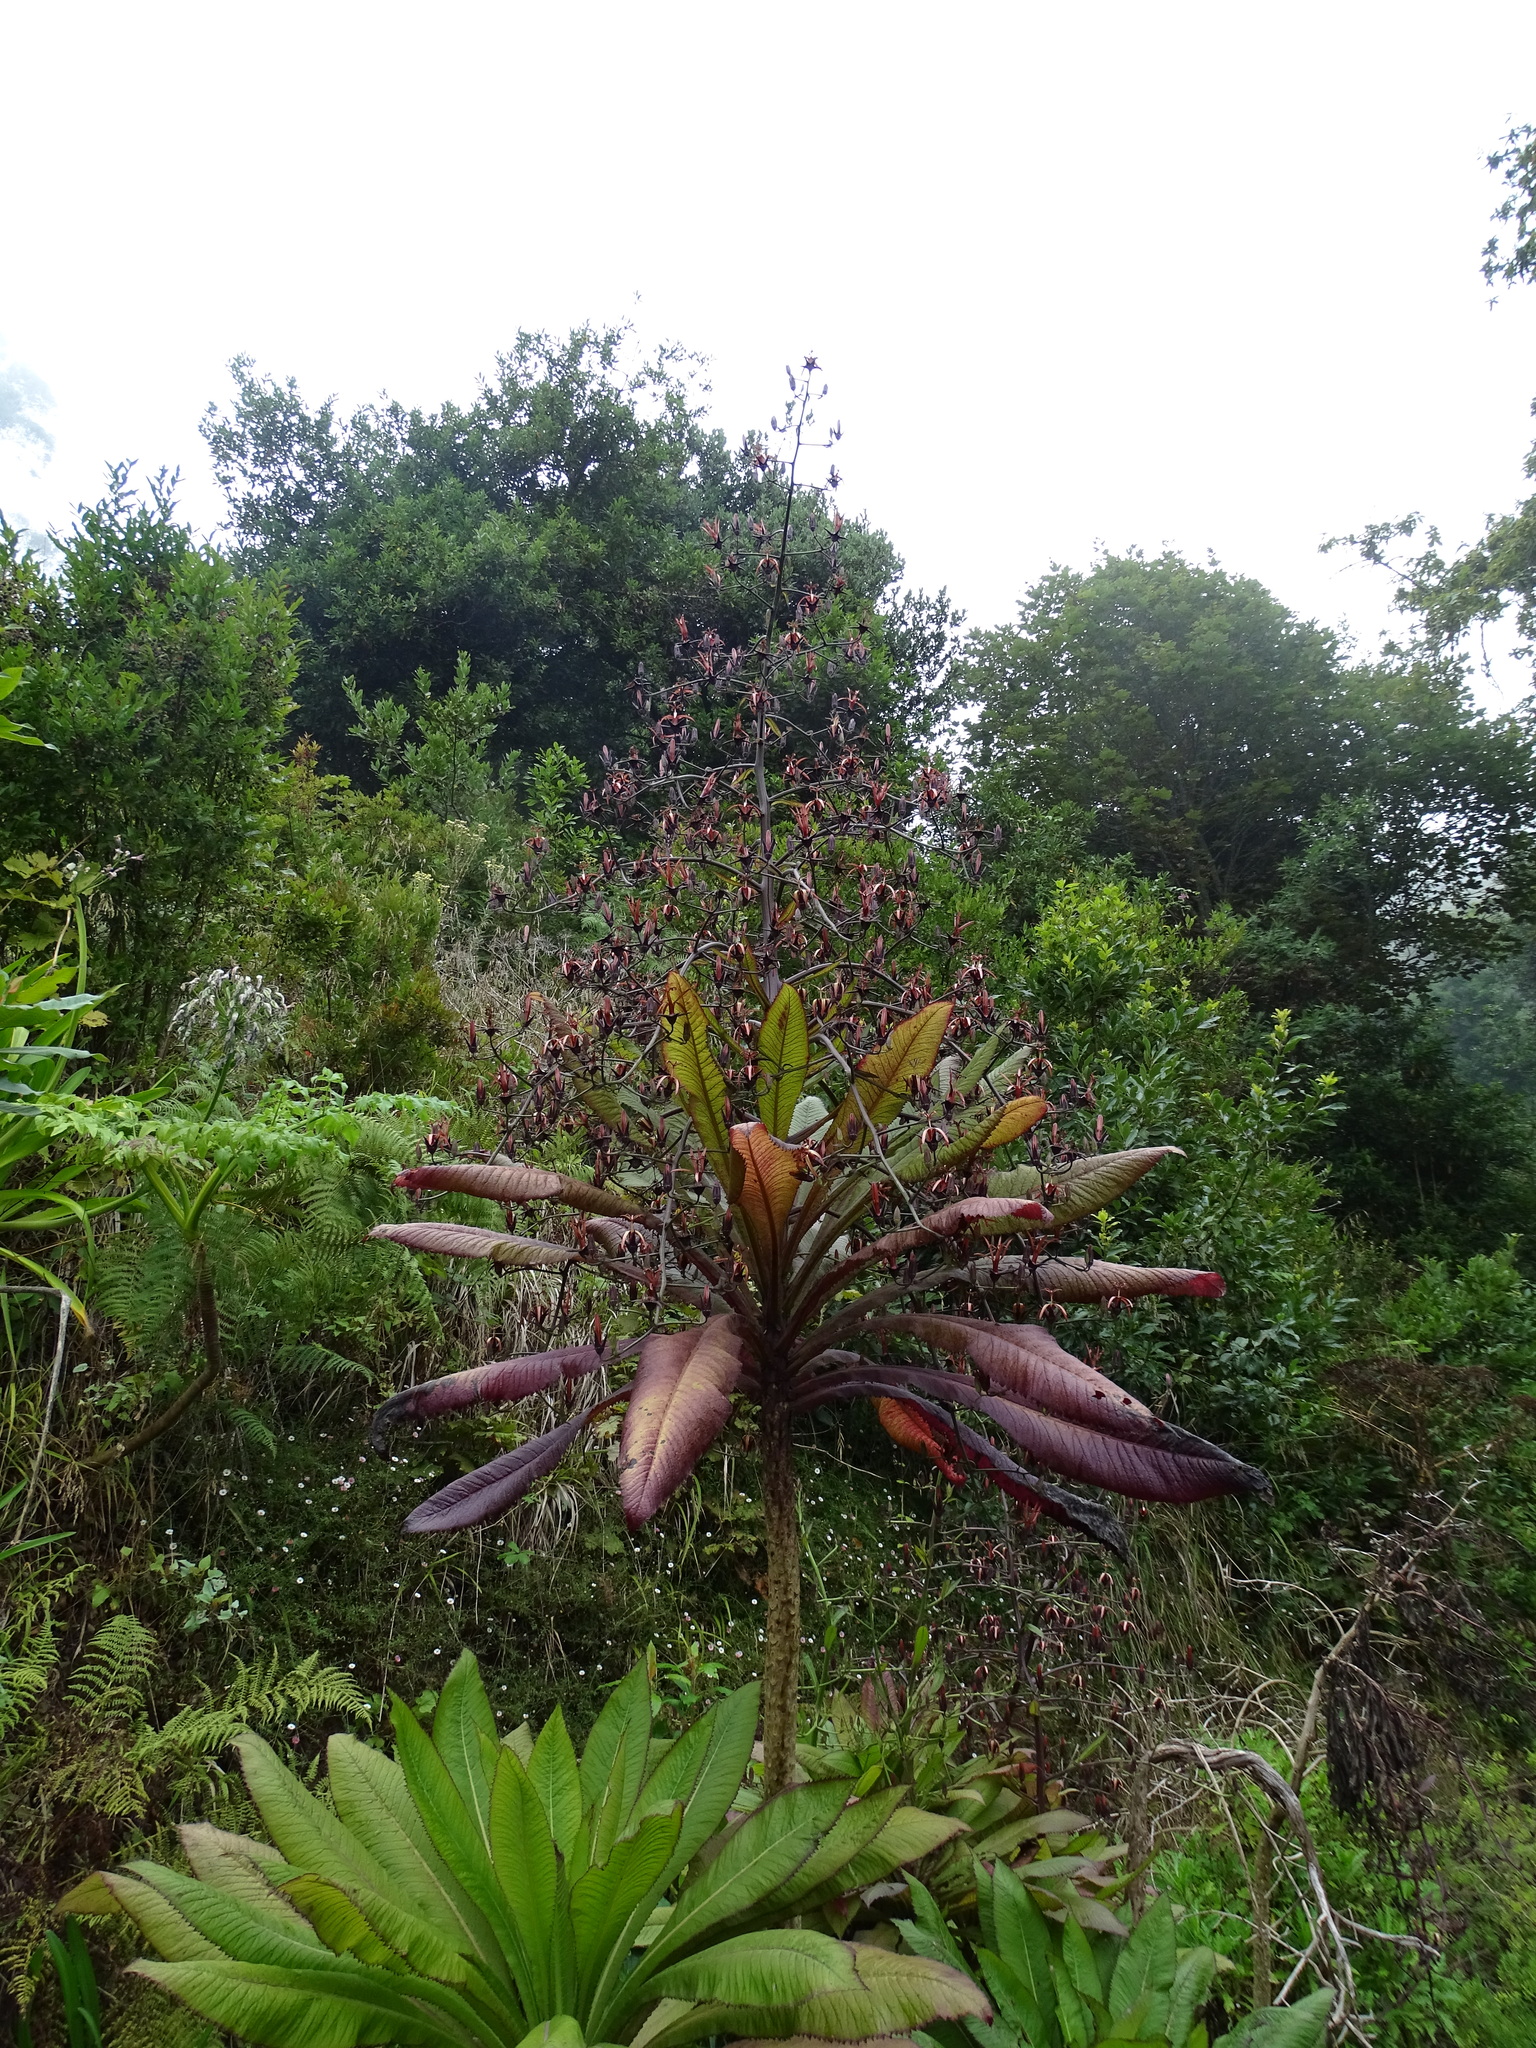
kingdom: Plantae
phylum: Tracheophyta
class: Magnoliopsida
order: Asterales
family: Campanulaceae
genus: Musschia
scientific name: Musschia wollastonii
